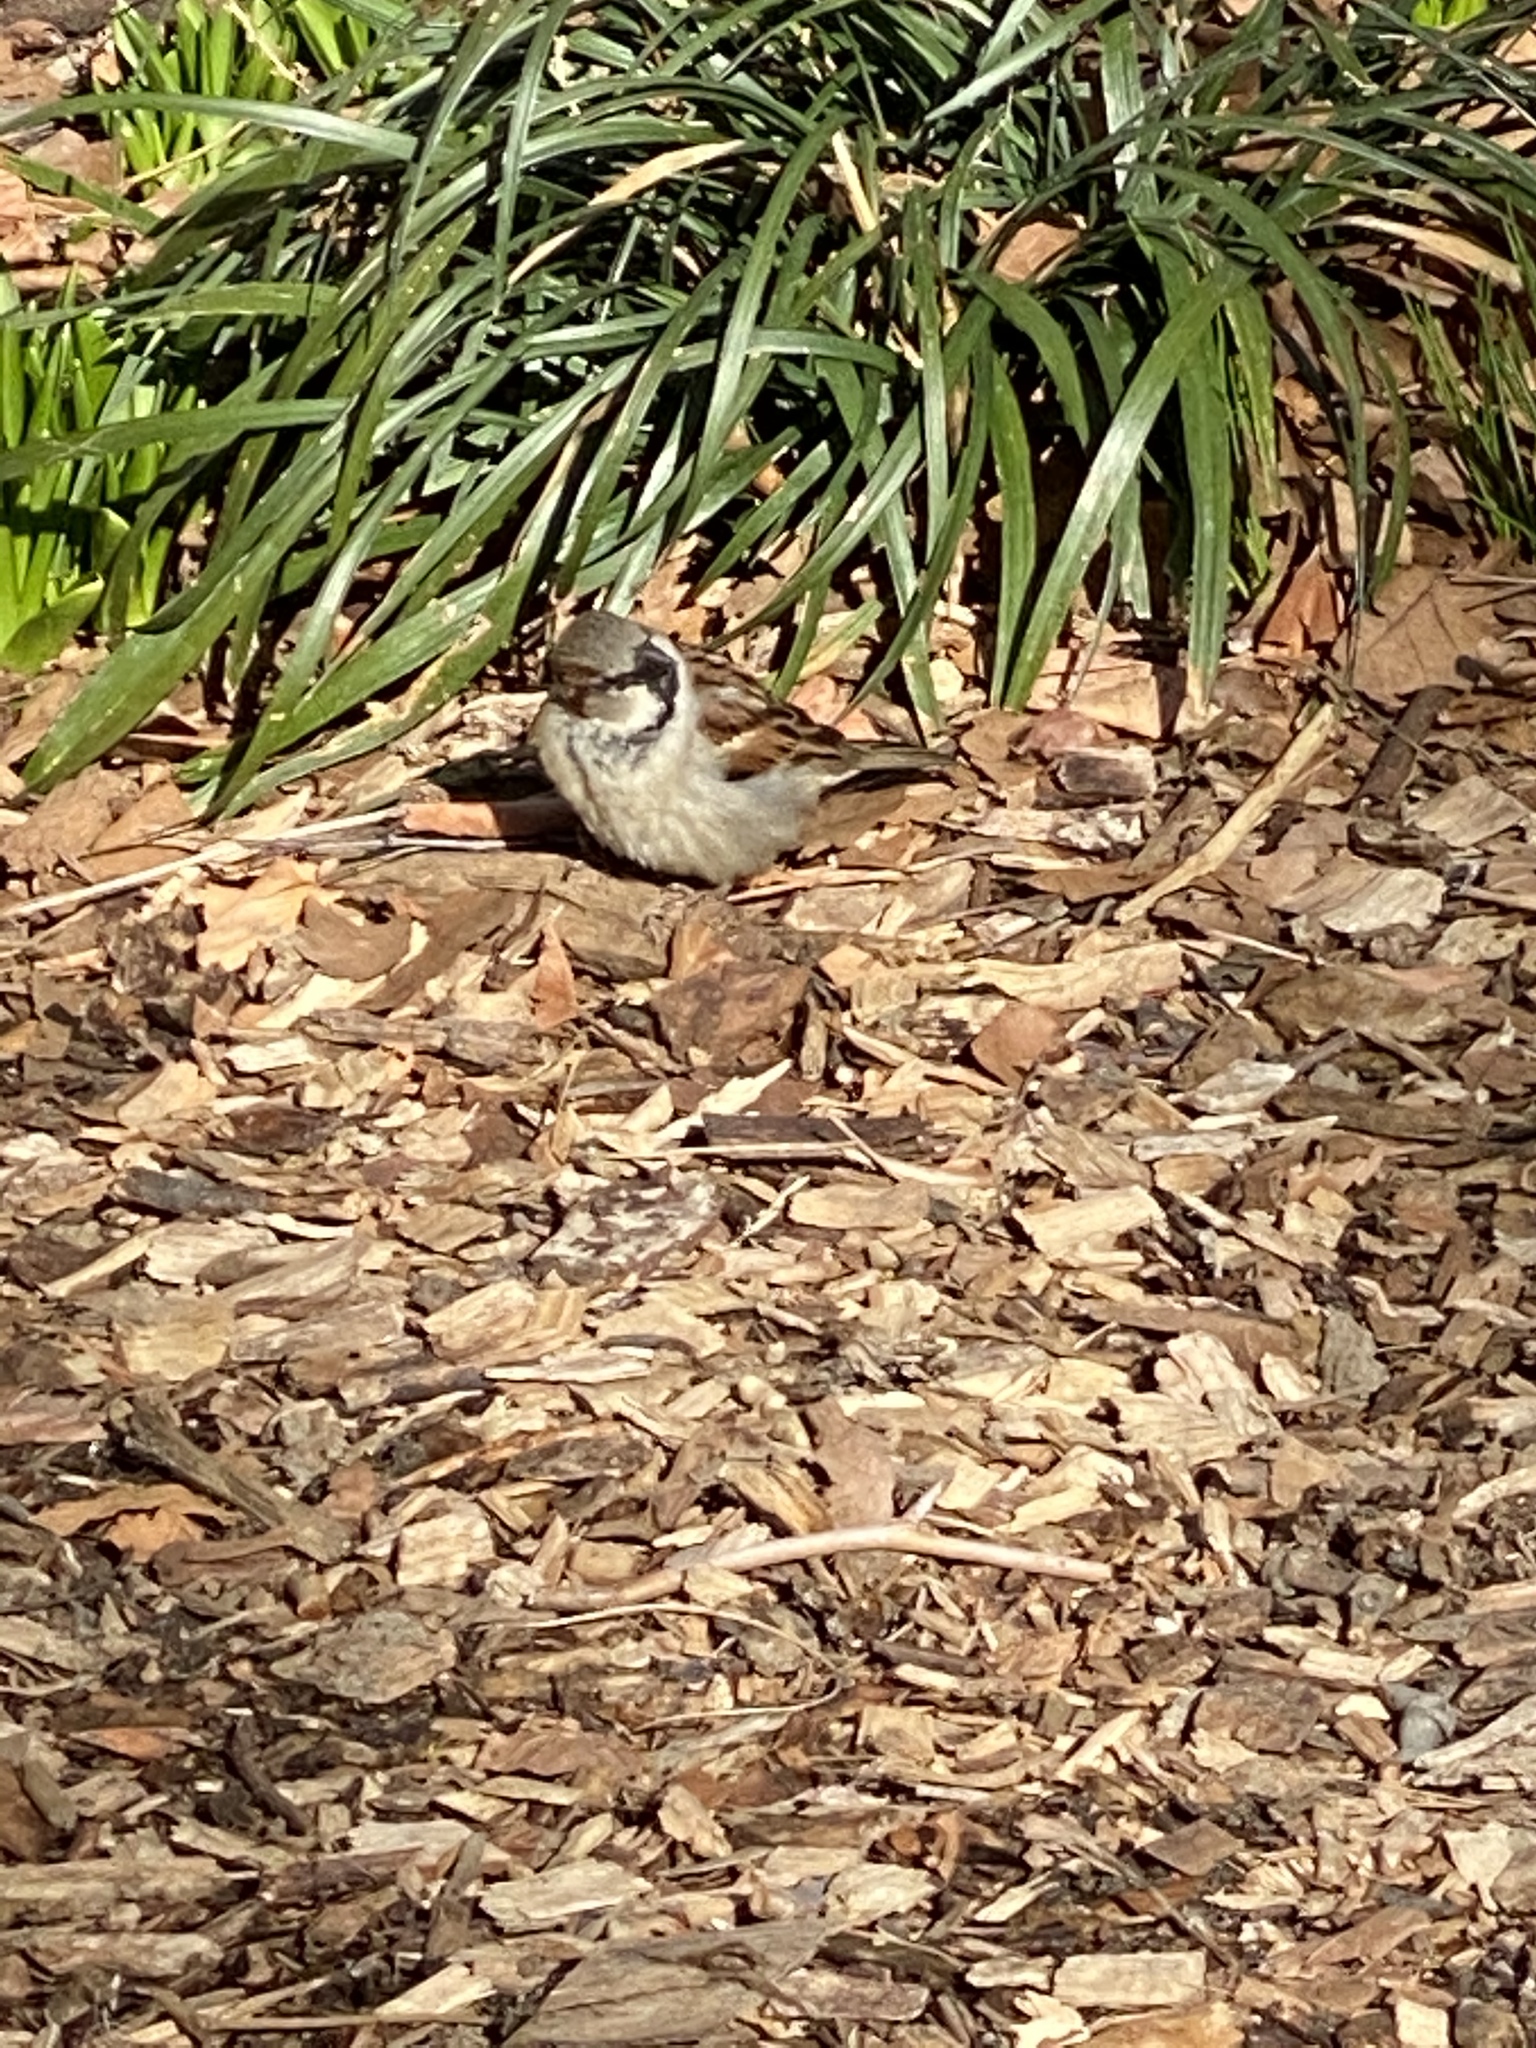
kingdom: Animalia
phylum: Chordata
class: Aves
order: Passeriformes
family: Passeridae
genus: Passer
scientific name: Passer domesticus
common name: House sparrow
